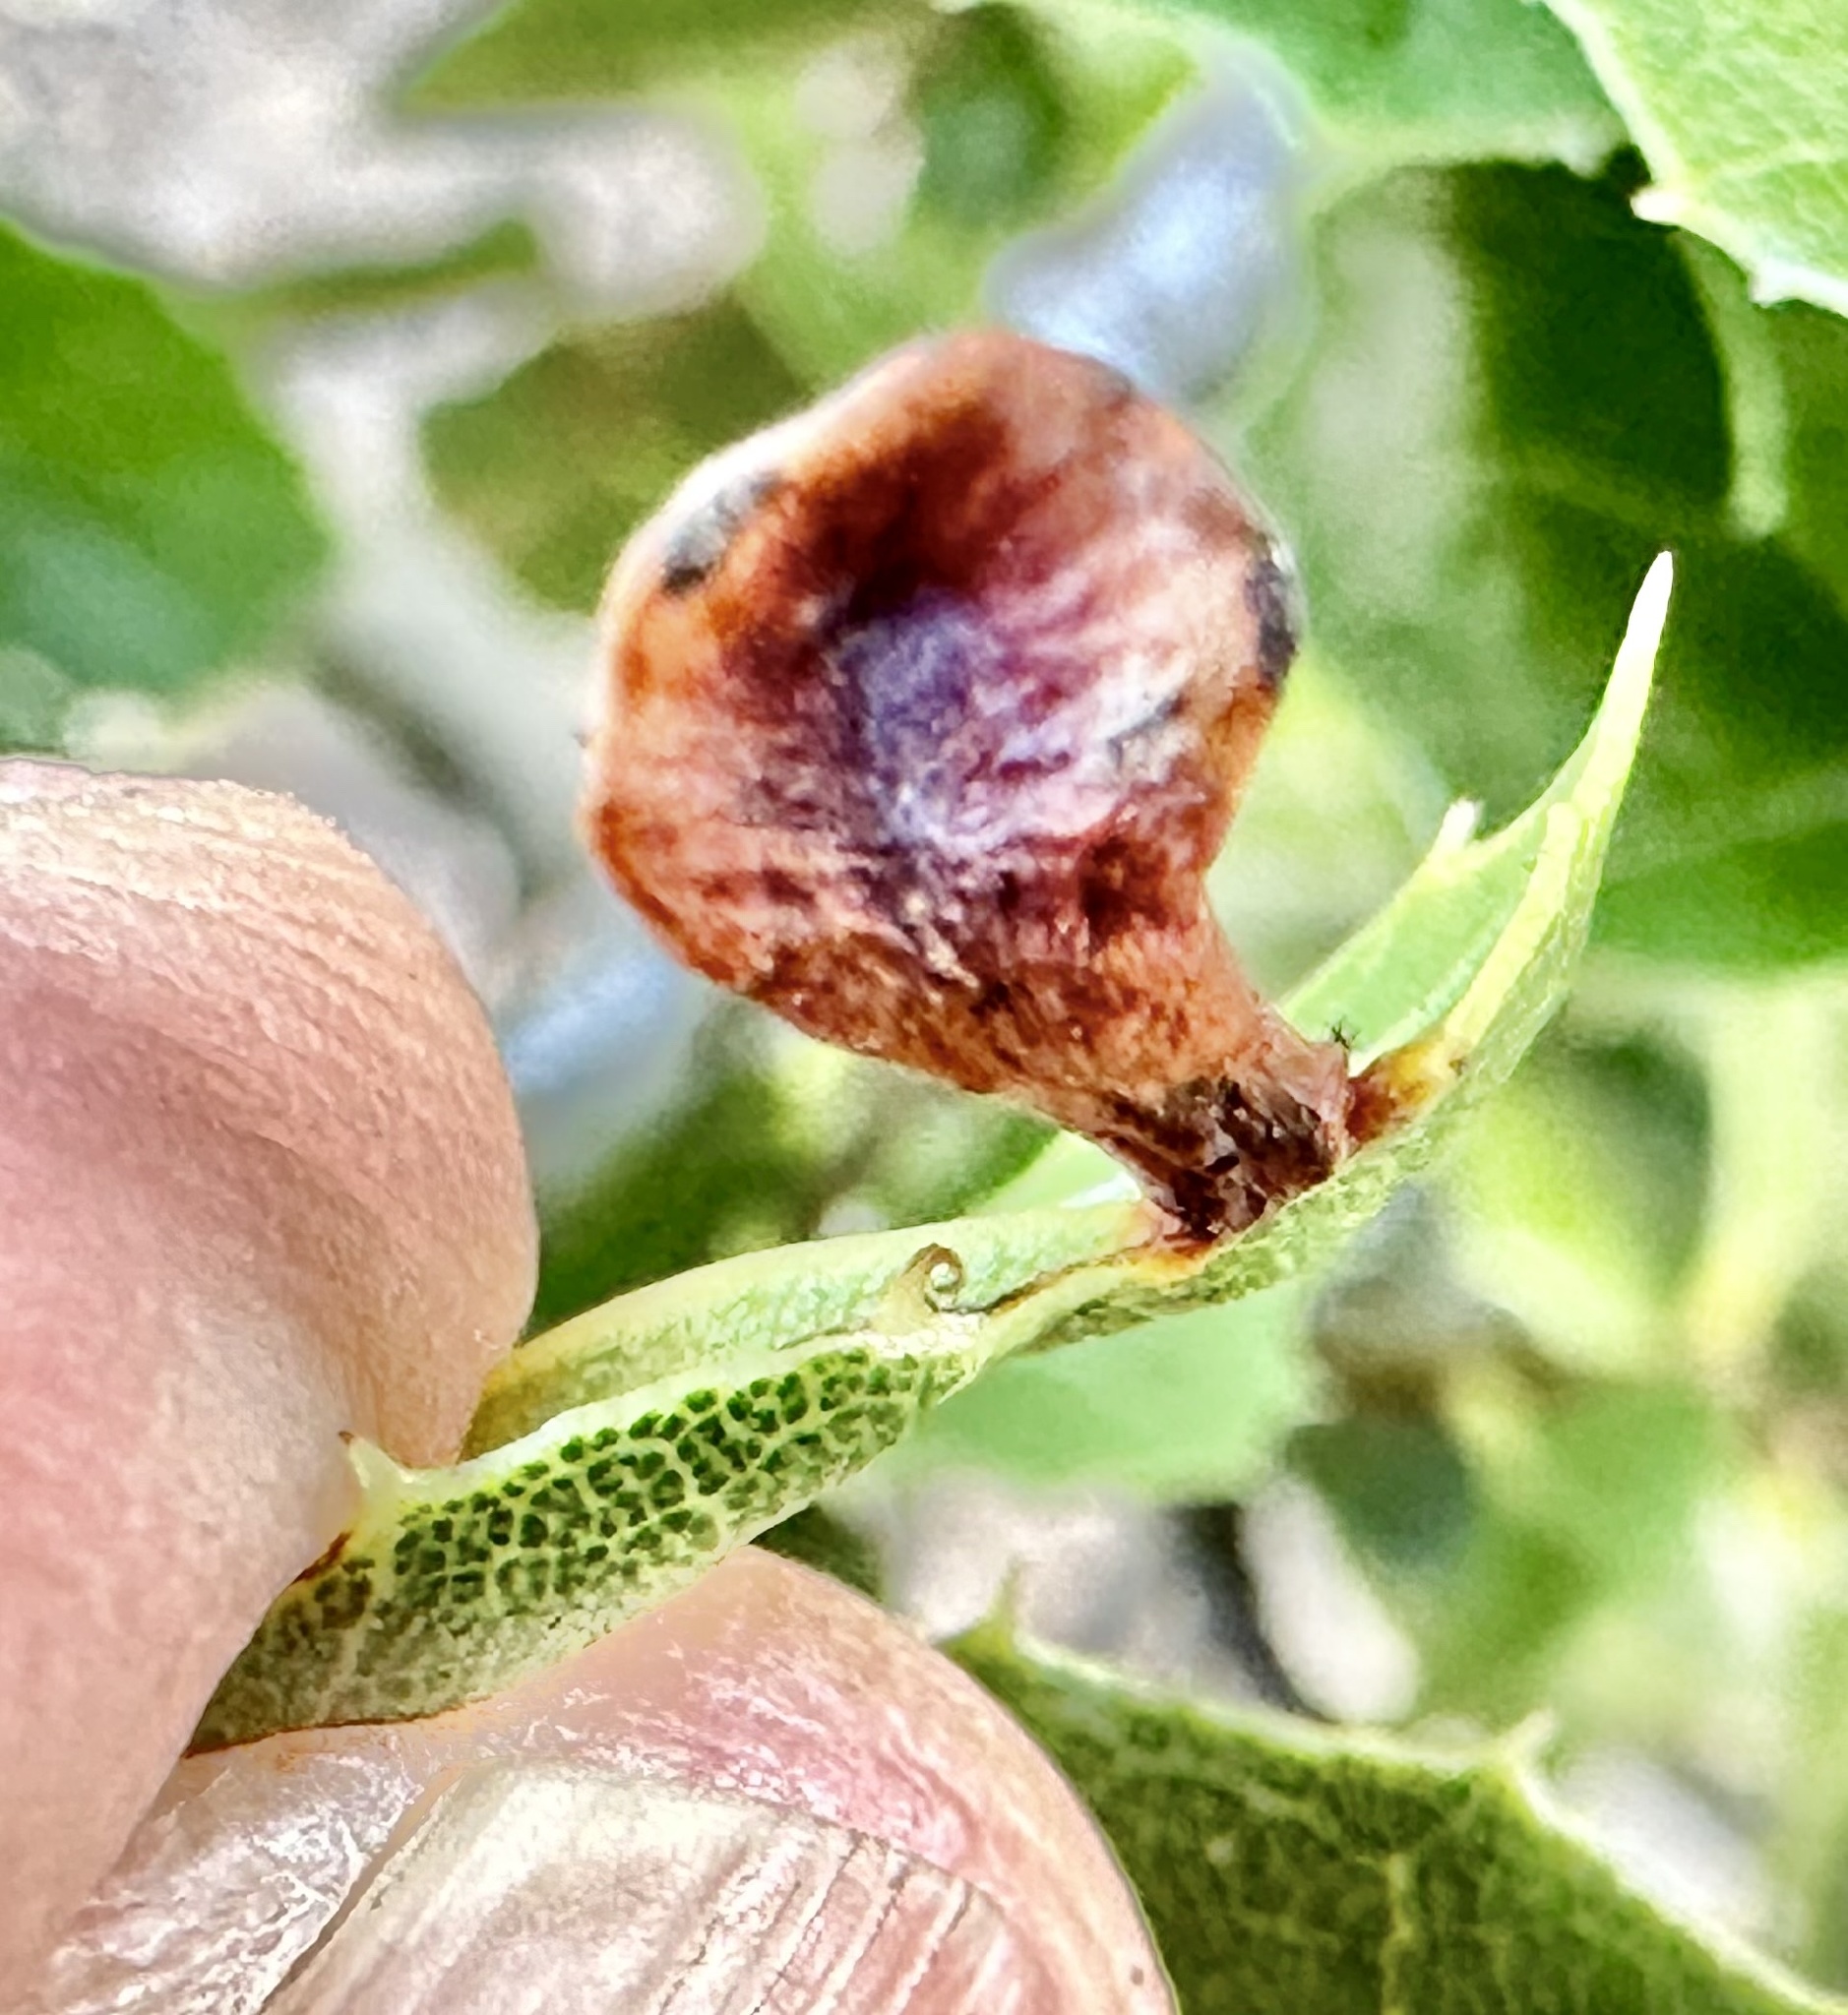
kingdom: Animalia
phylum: Arthropoda
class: Insecta
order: Hymenoptera
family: Cynipidae
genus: Amphibolips
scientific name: Amphibolips quercuspomiformis
